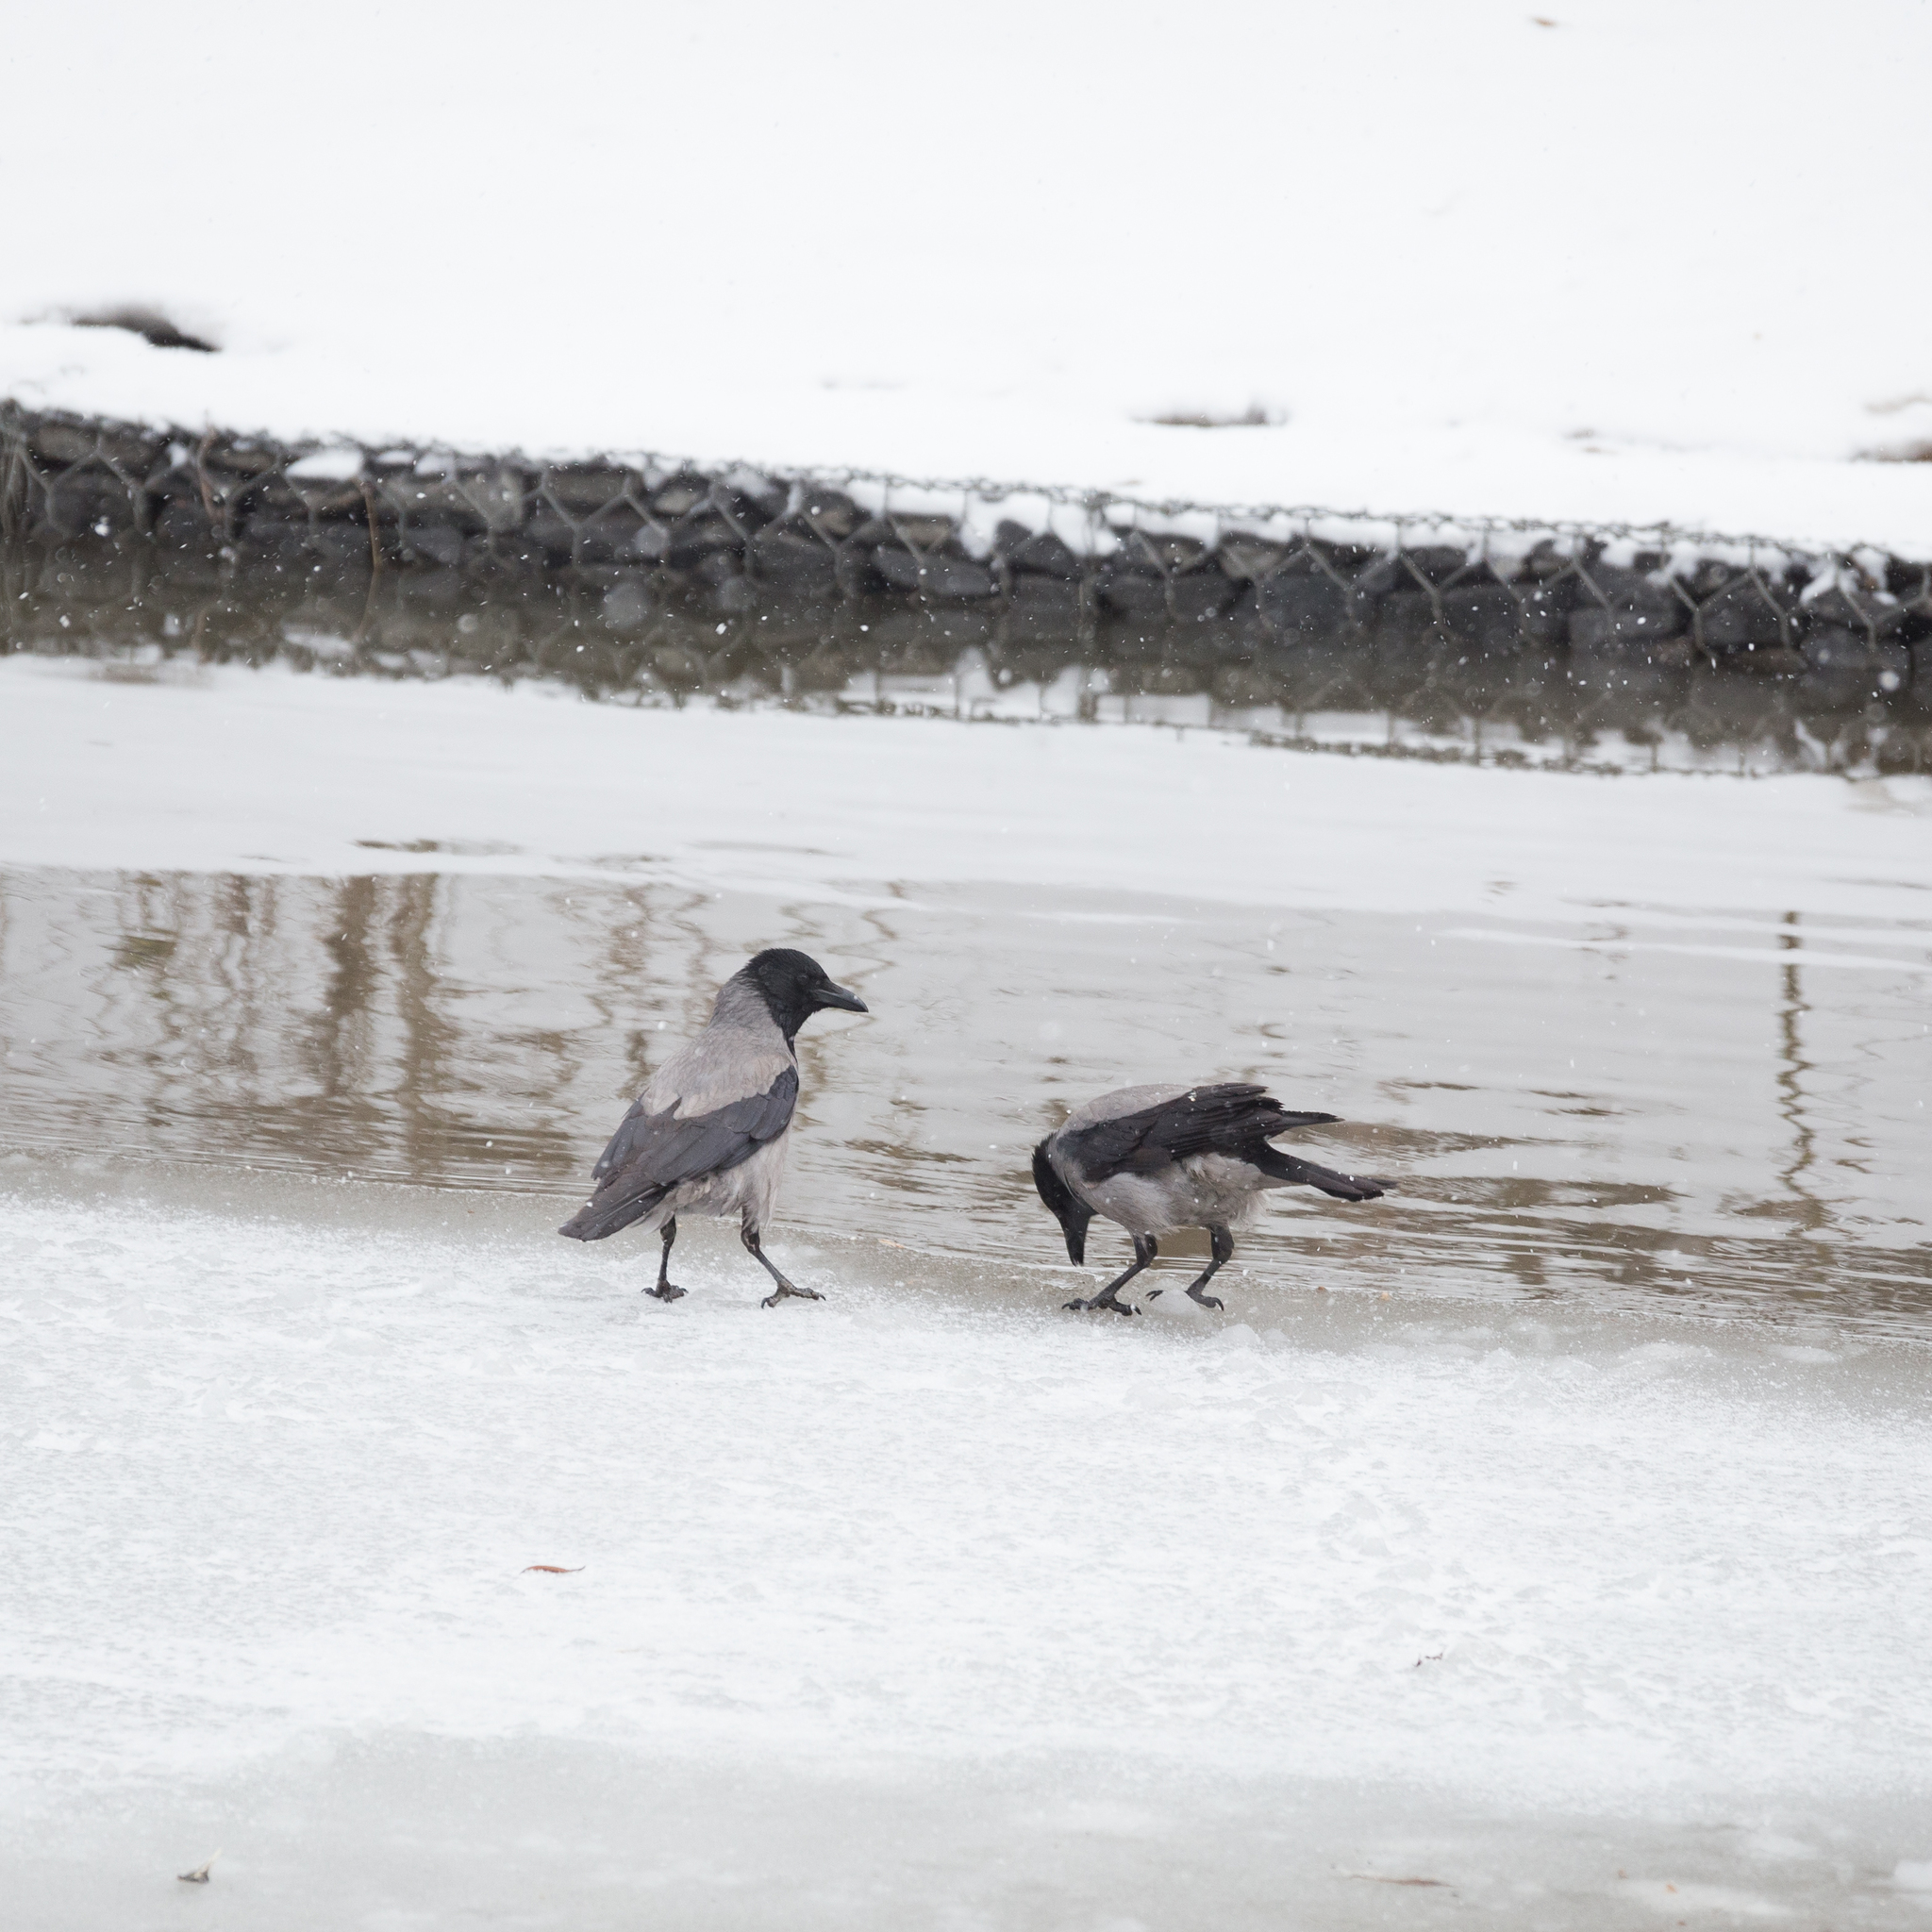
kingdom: Animalia
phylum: Chordata
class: Aves
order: Passeriformes
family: Corvidae
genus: Corvus
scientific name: Corvus cornix
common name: Hooded crow
